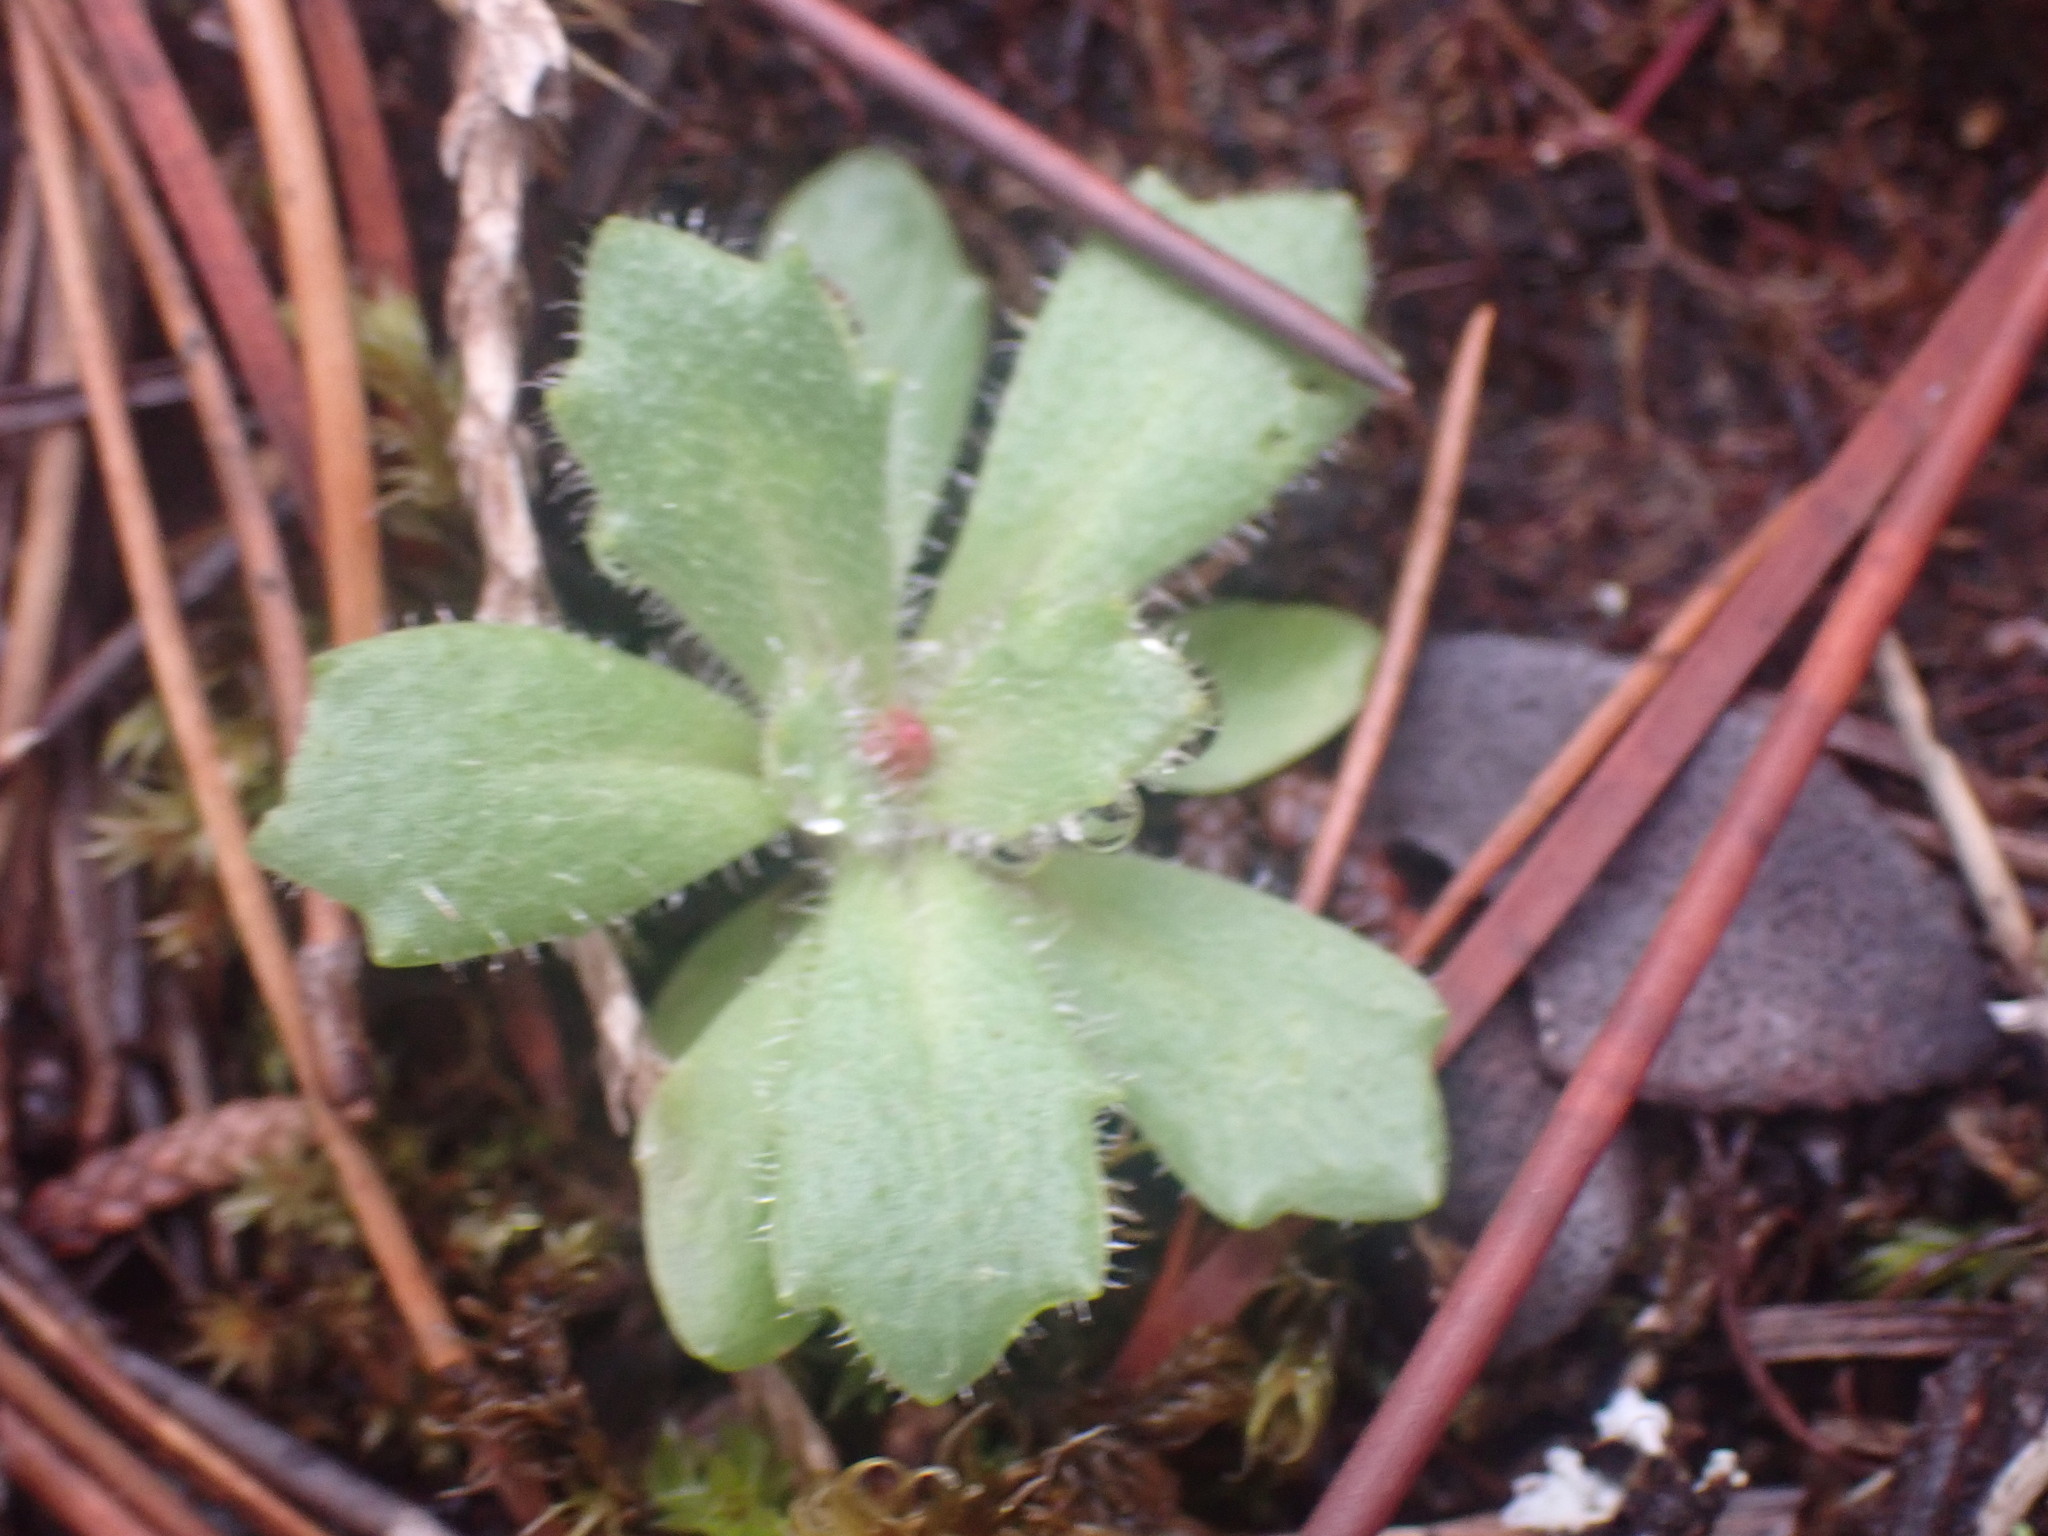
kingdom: Plantae
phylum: Tracheophyta
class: Magnoliopsida
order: Saxifragales
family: Saxifragaceae
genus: Micranthes
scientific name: Micranthes ferruginea
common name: Rusty saxifrage
